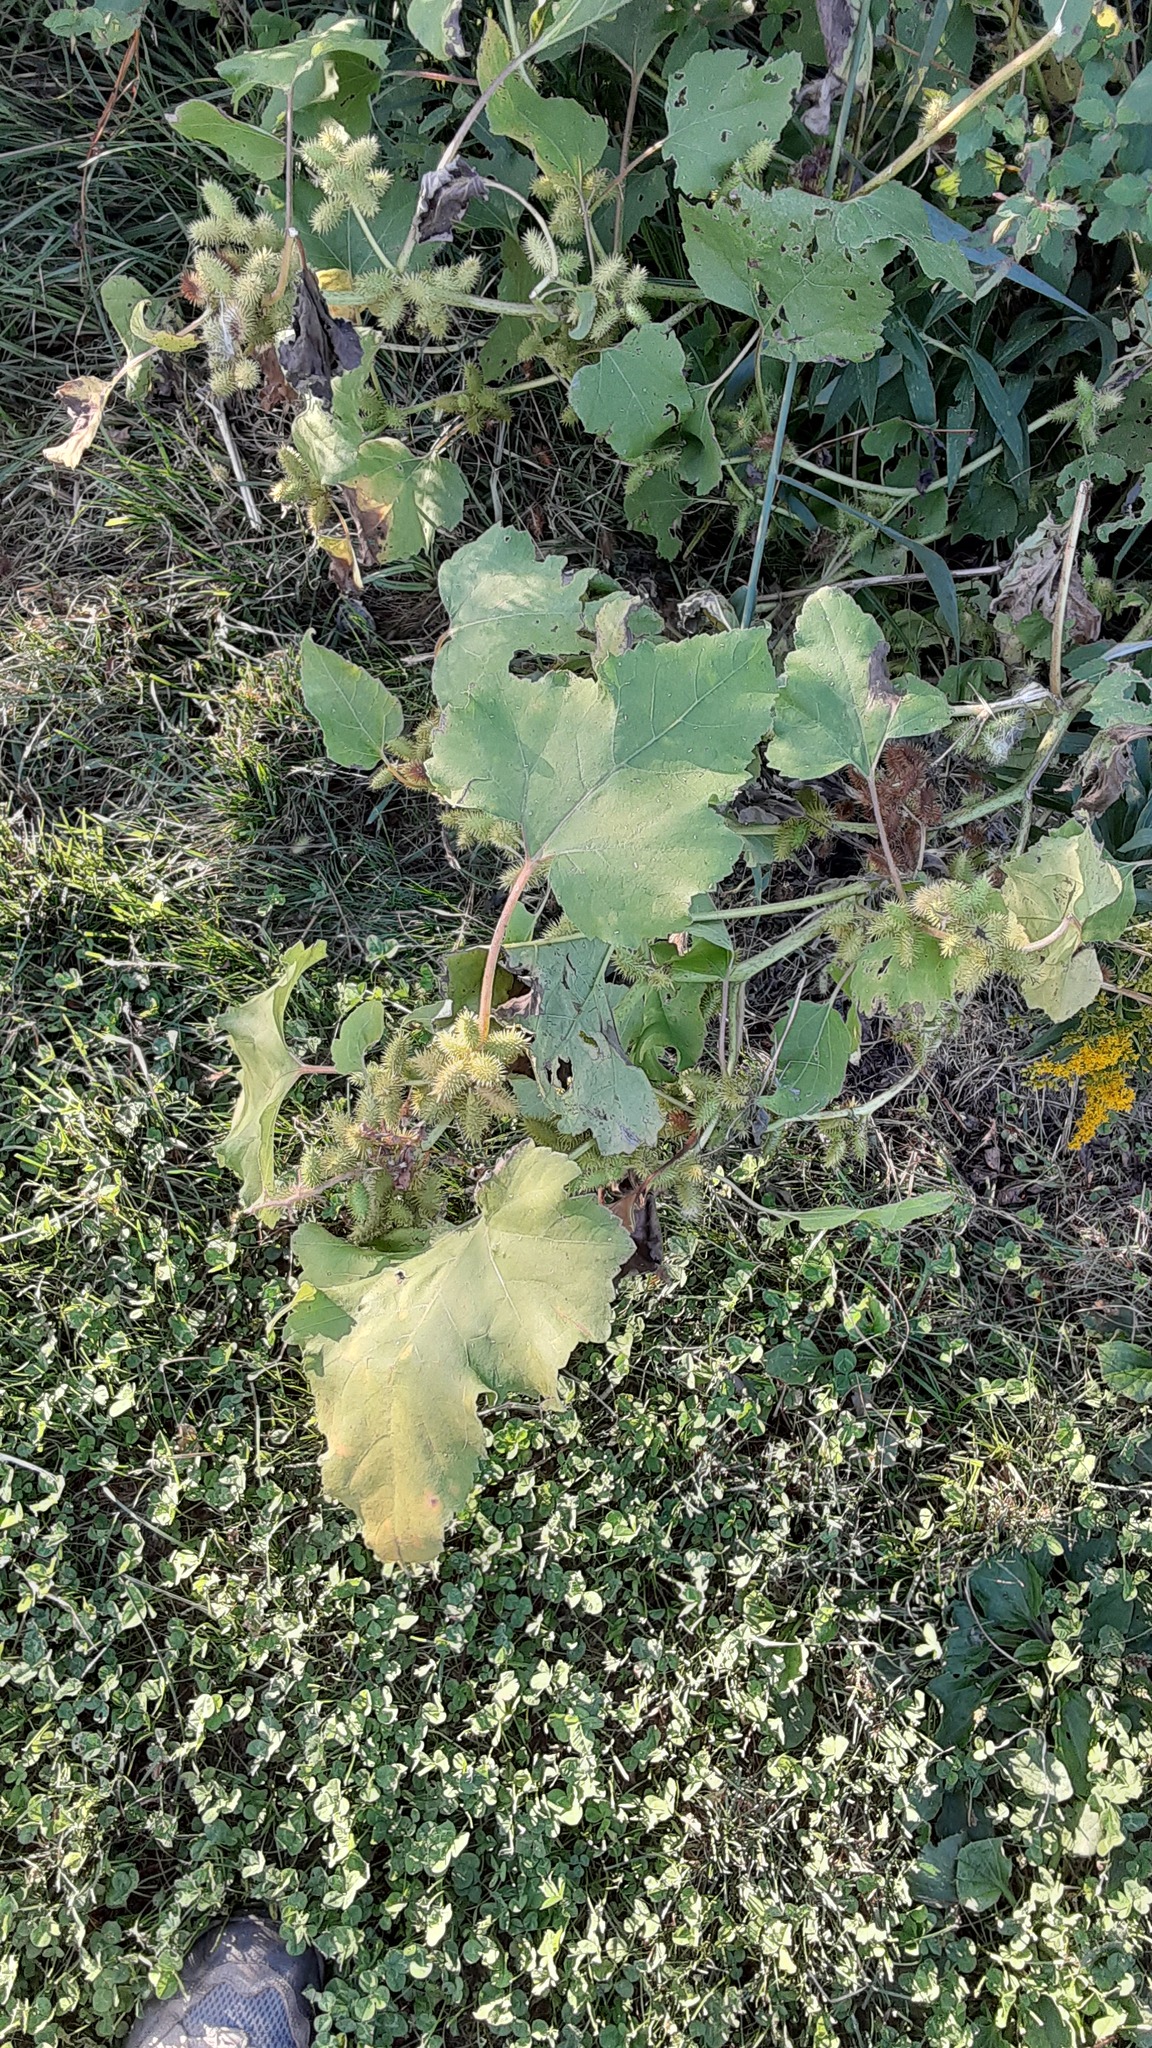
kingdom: Plantae
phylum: Tracheophyta
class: Magnoliopsida
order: Asterales
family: Asteraceae
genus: Xanthium
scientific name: Xanthium strumarium
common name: Rough cocklebur
